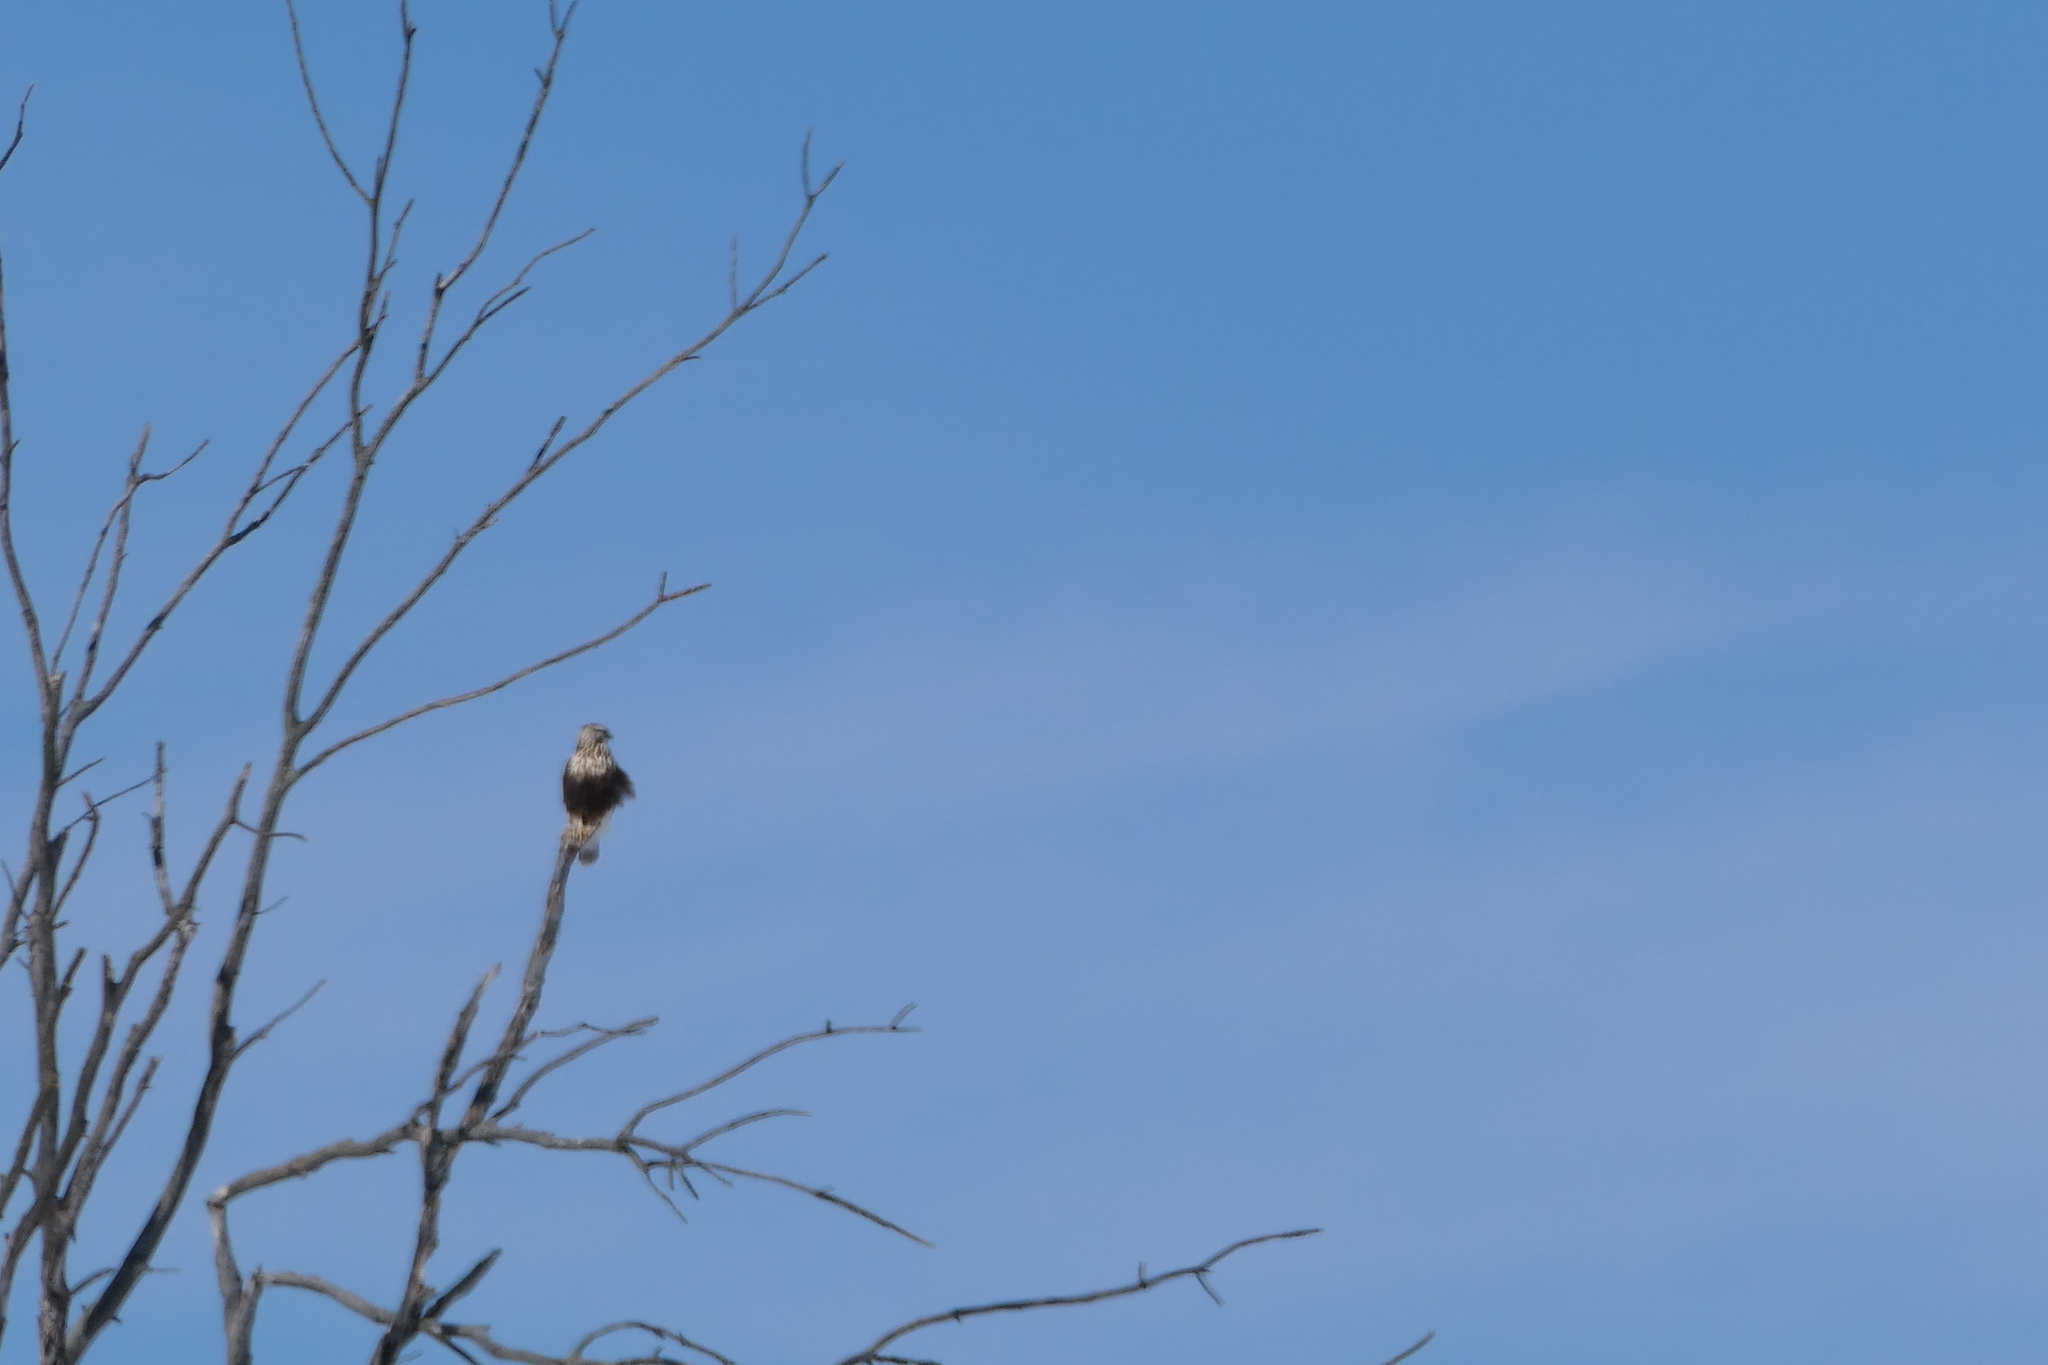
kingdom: Animalia
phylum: Chordata
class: Aves
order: Accipitriformes
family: Accipitridae
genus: Buteo
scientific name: Buteo lagopus
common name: Rough-legged buzzard
